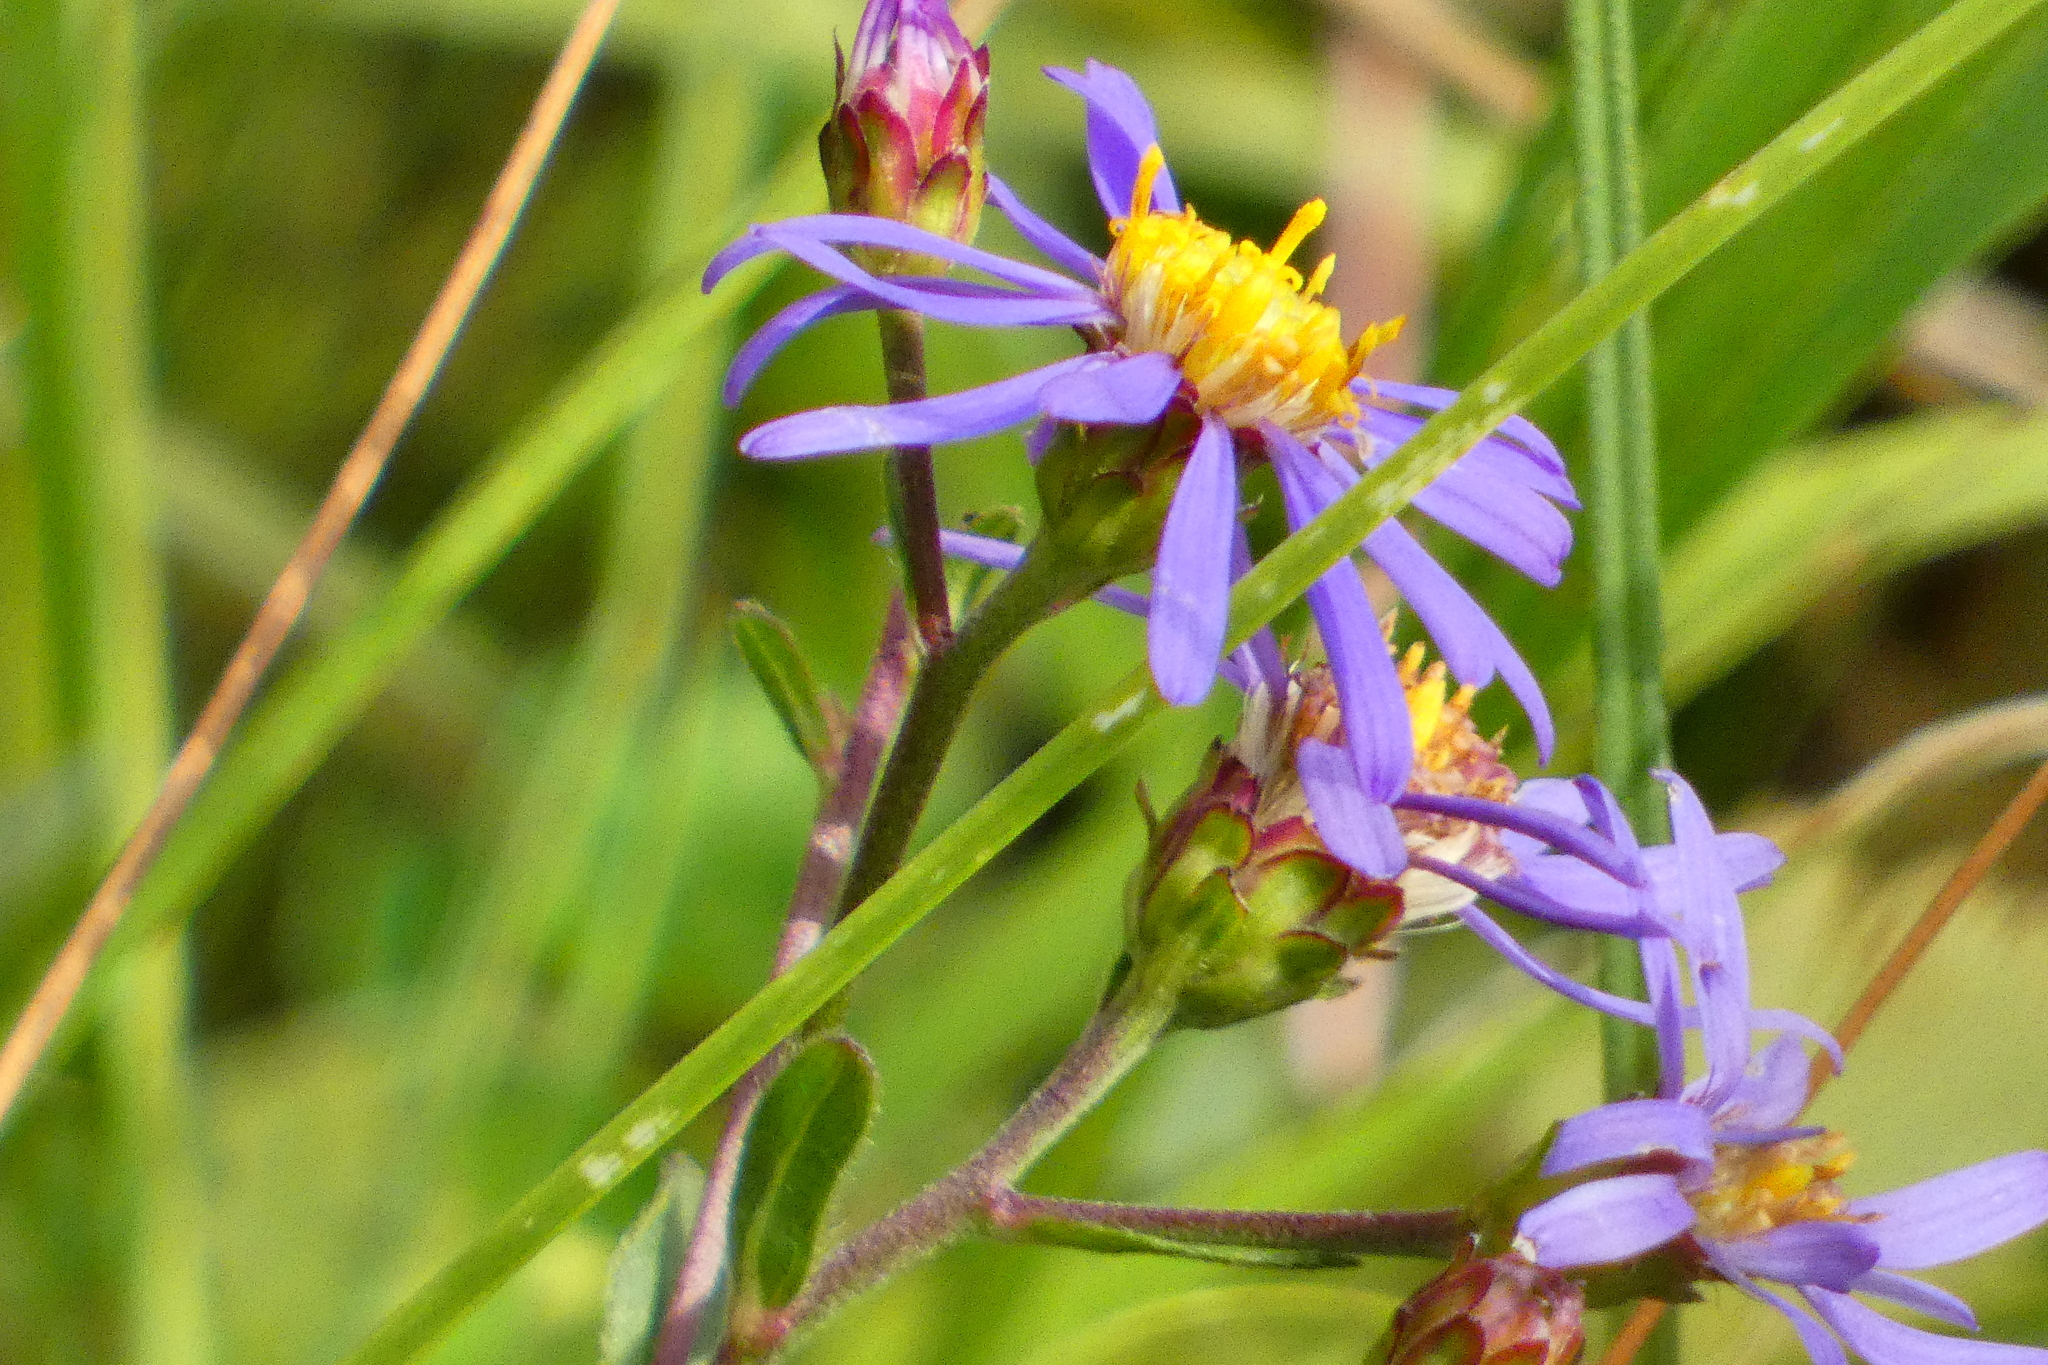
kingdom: Plantae
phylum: Tracheophyta
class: Magnoliopsida
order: Asterales
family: Asteraceae
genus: Aster
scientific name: Aster amellus
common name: European michaelmas daisy
